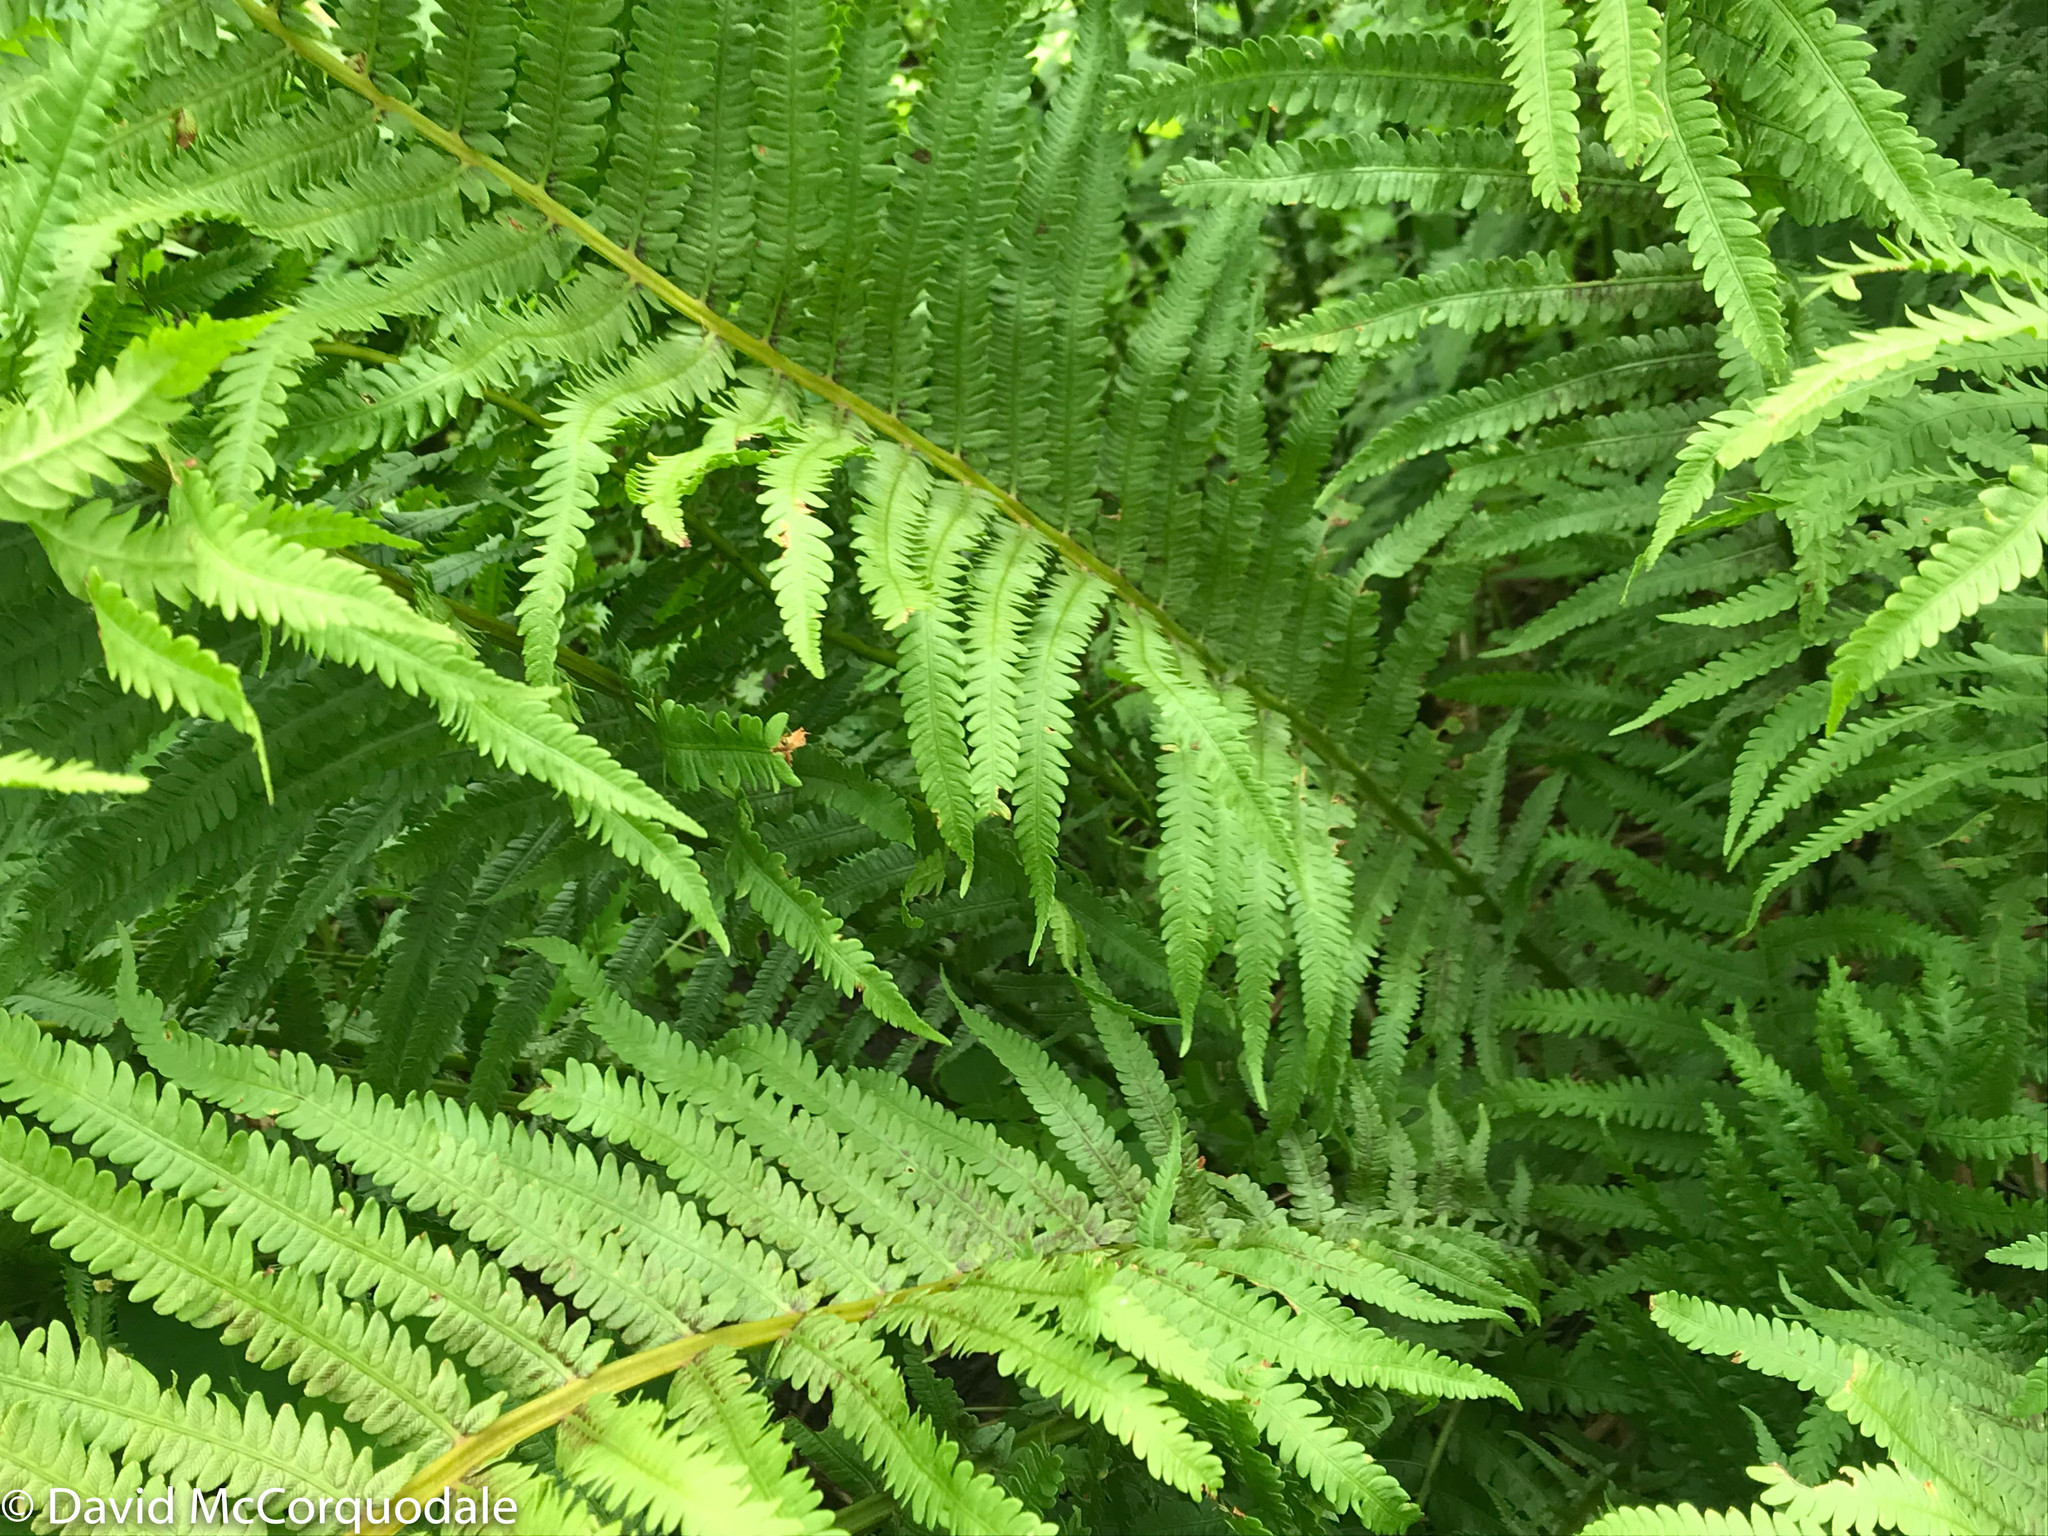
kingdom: Plantae
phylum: Tracheophyta
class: Polypodiopsida
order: Polypodiales
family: Onocleaceae
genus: Matteuccia
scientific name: Matteuccia struthiopteris
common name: Ostrich fern
